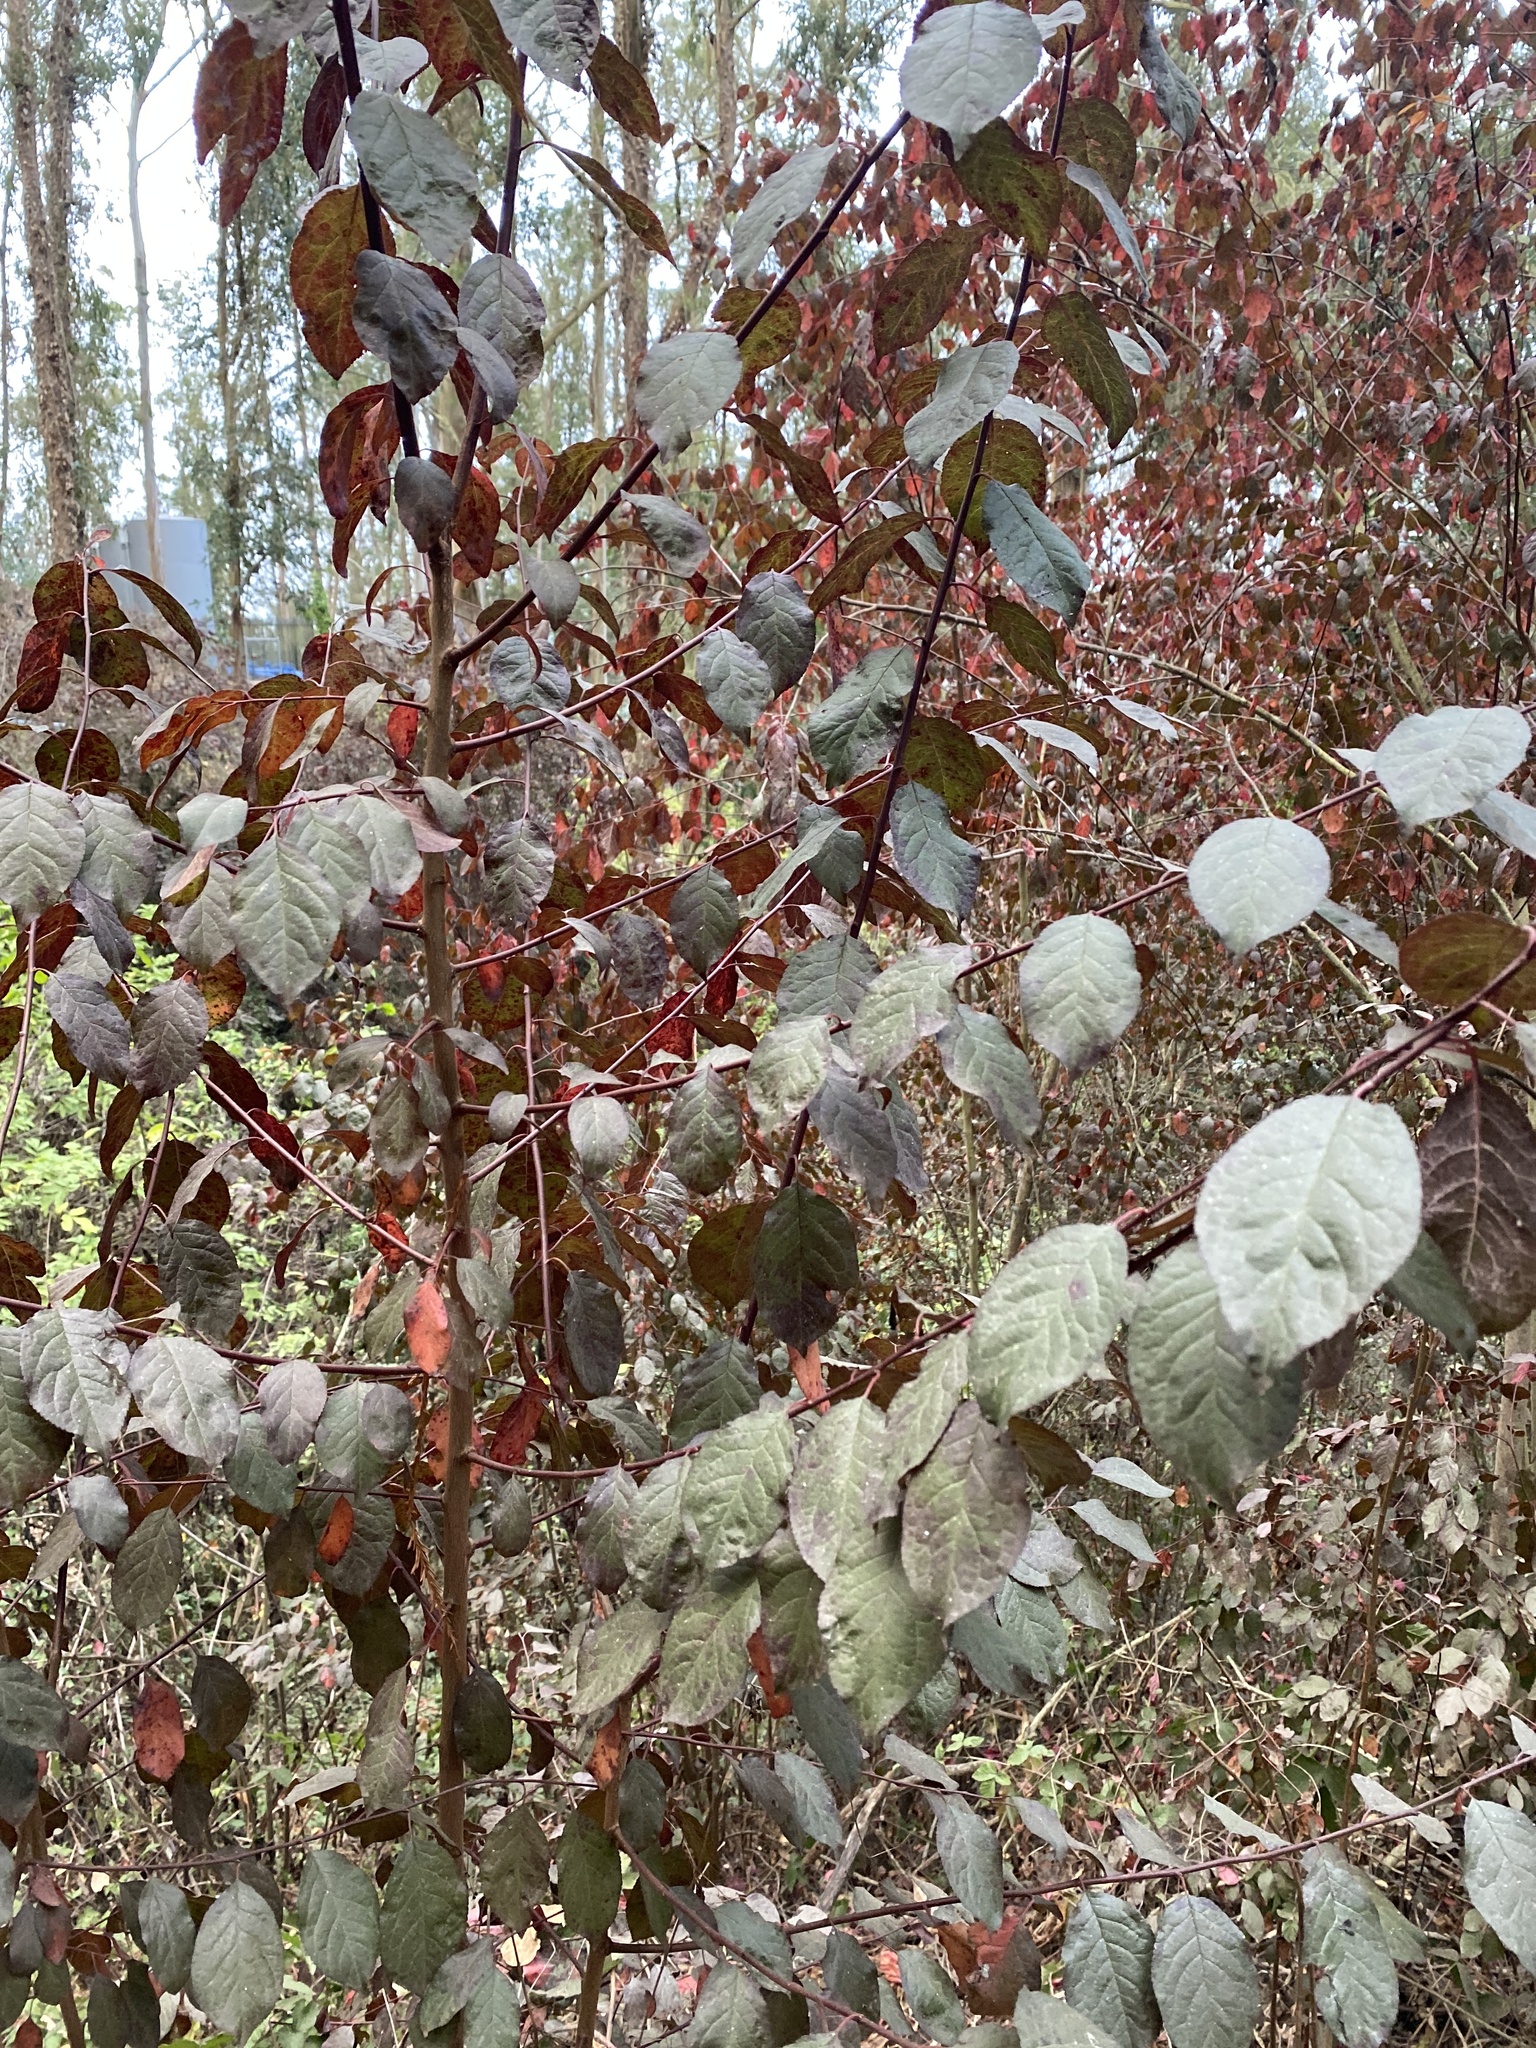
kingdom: Plantae
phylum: Tracheophyta
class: Magnoliopsida
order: Rosales
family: Rosaceae
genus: Prunus
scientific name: Prunus cerasifera
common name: Cherry plum
